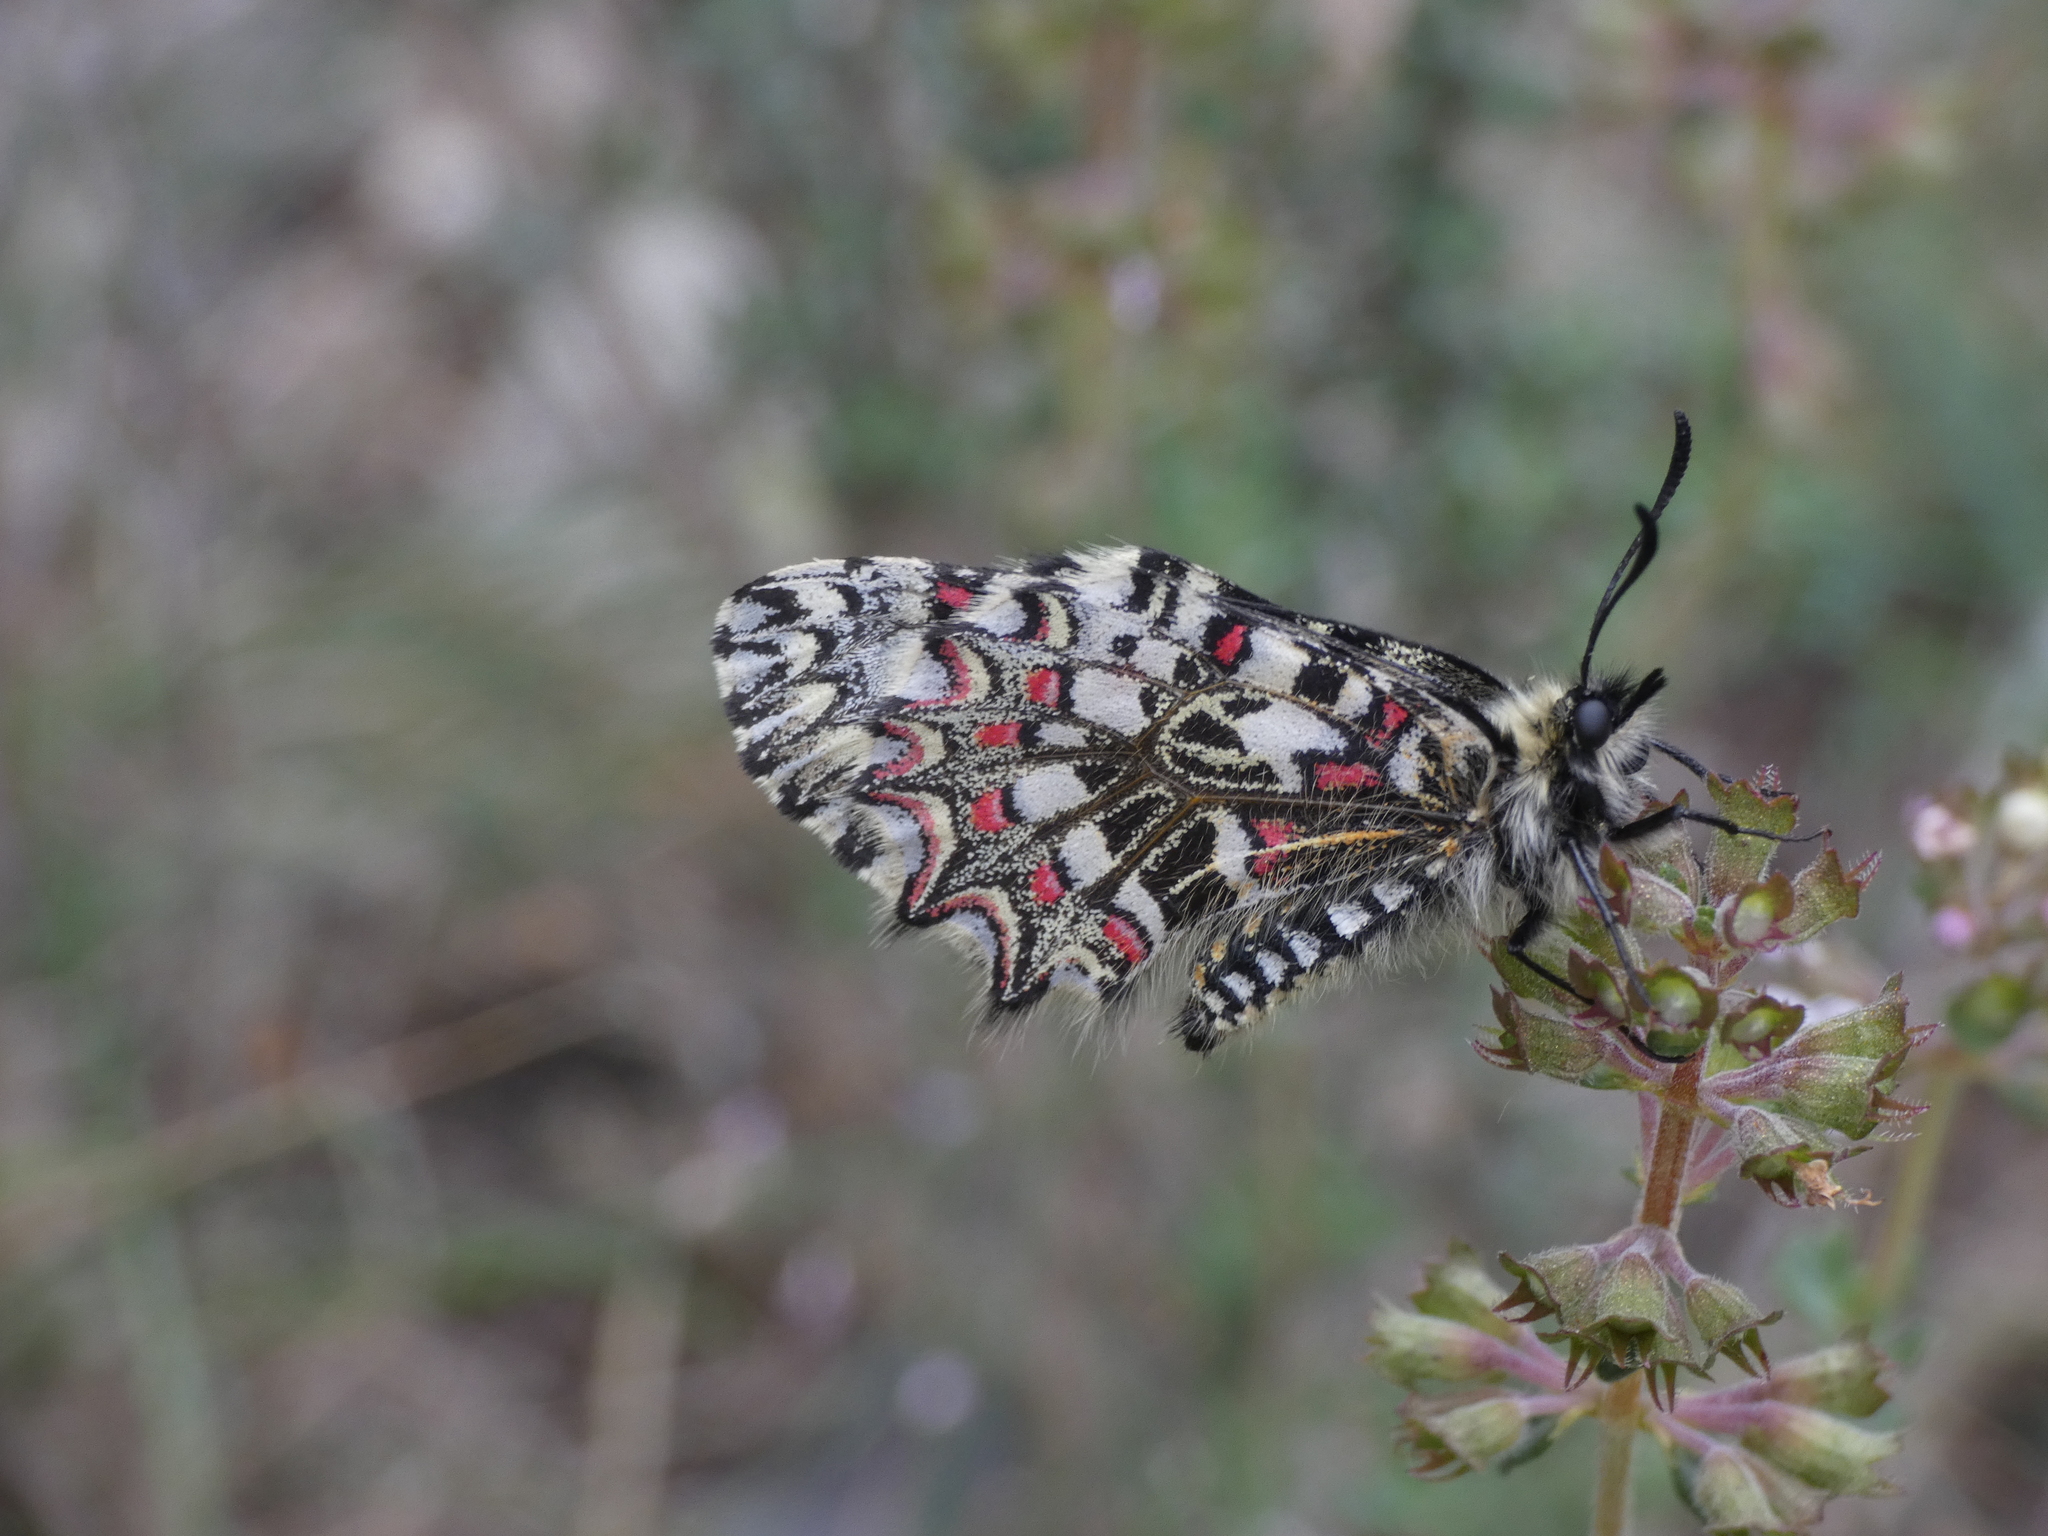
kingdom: Animalia
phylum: Arthropoda
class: Insecta
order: Lepidoptera
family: Papilionidae
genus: Zerynthia
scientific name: Zerynthia rumina
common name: Spanish festoon
